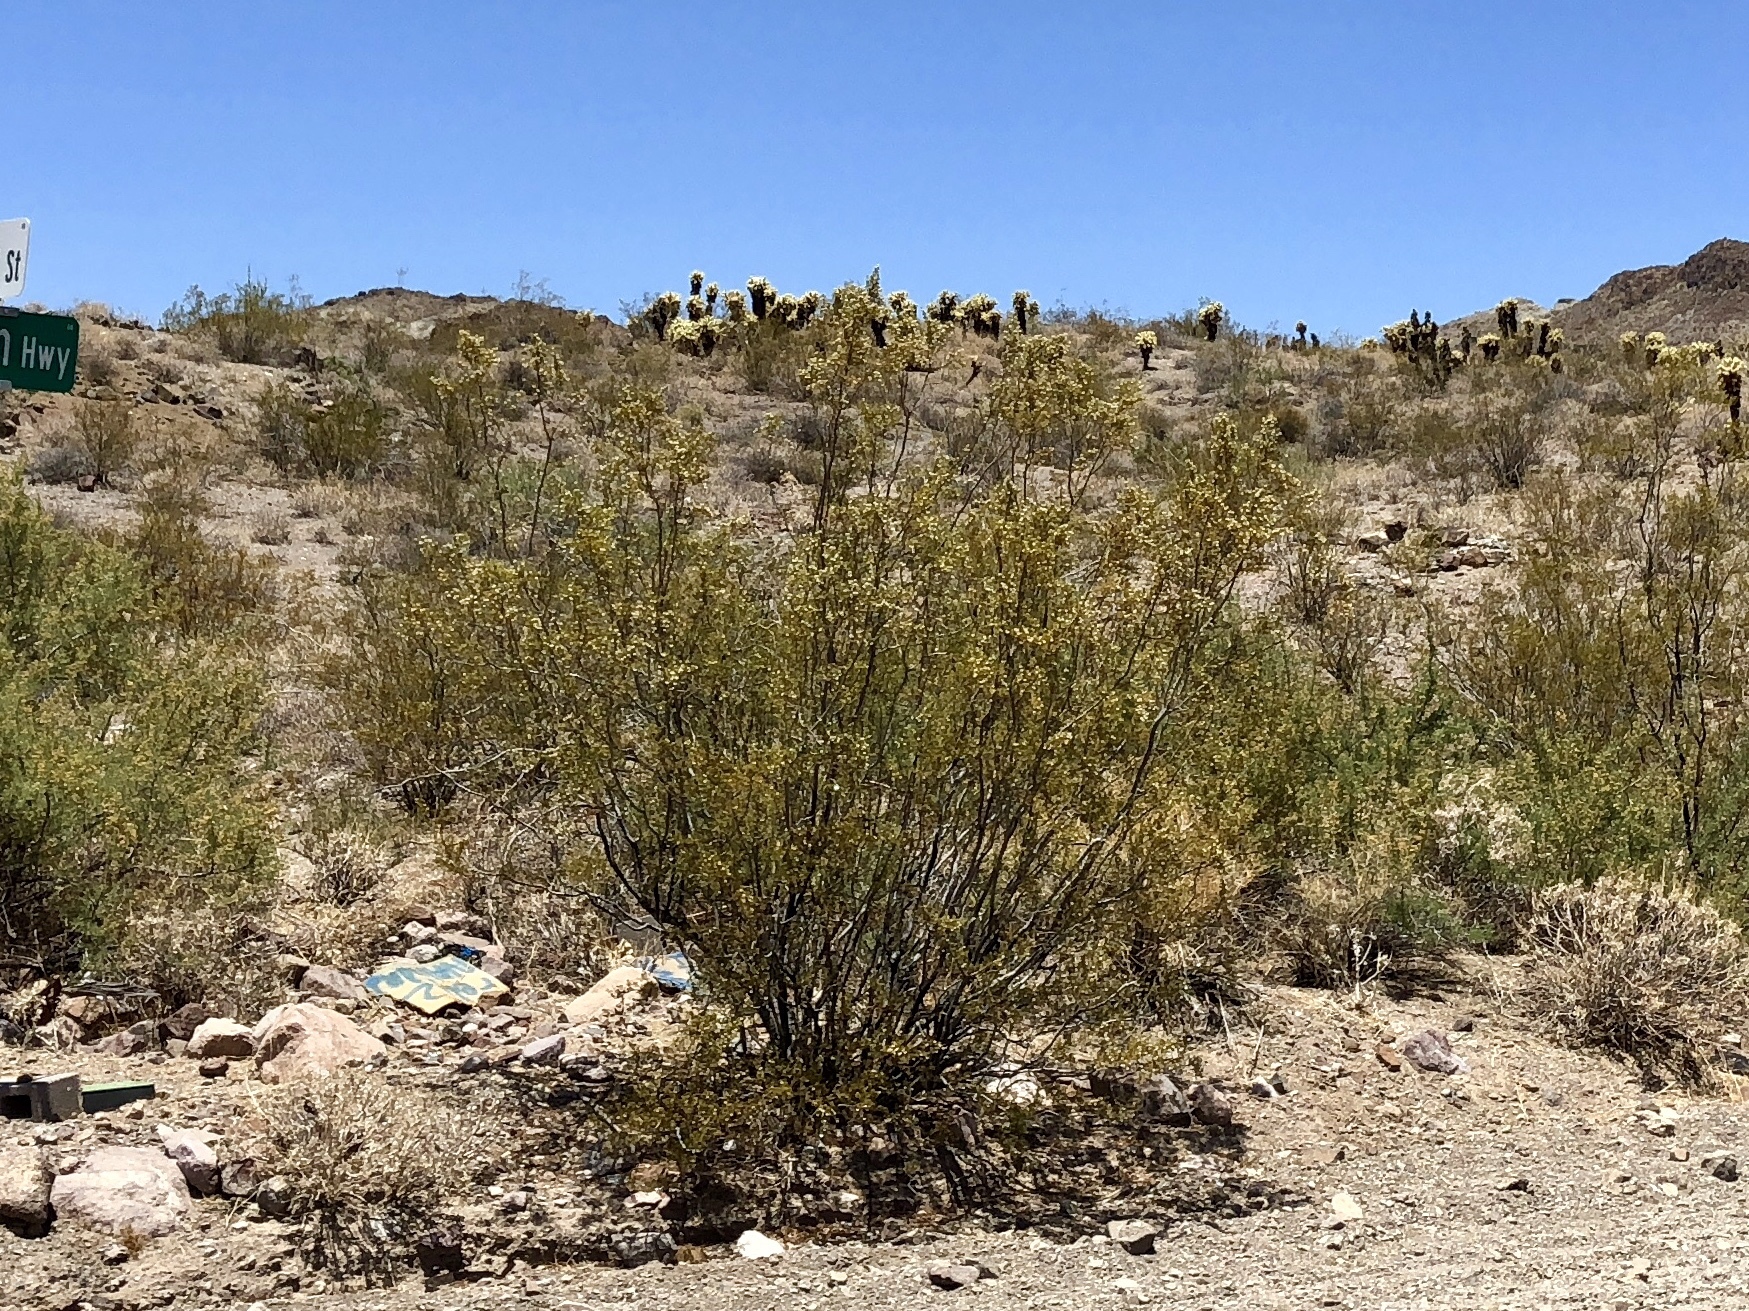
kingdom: Plantae
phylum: Tracheophyta
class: Magnoliopsida
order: Zygophyllales
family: Zygophyllaceae
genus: Larrea
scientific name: Larrea tridentata
